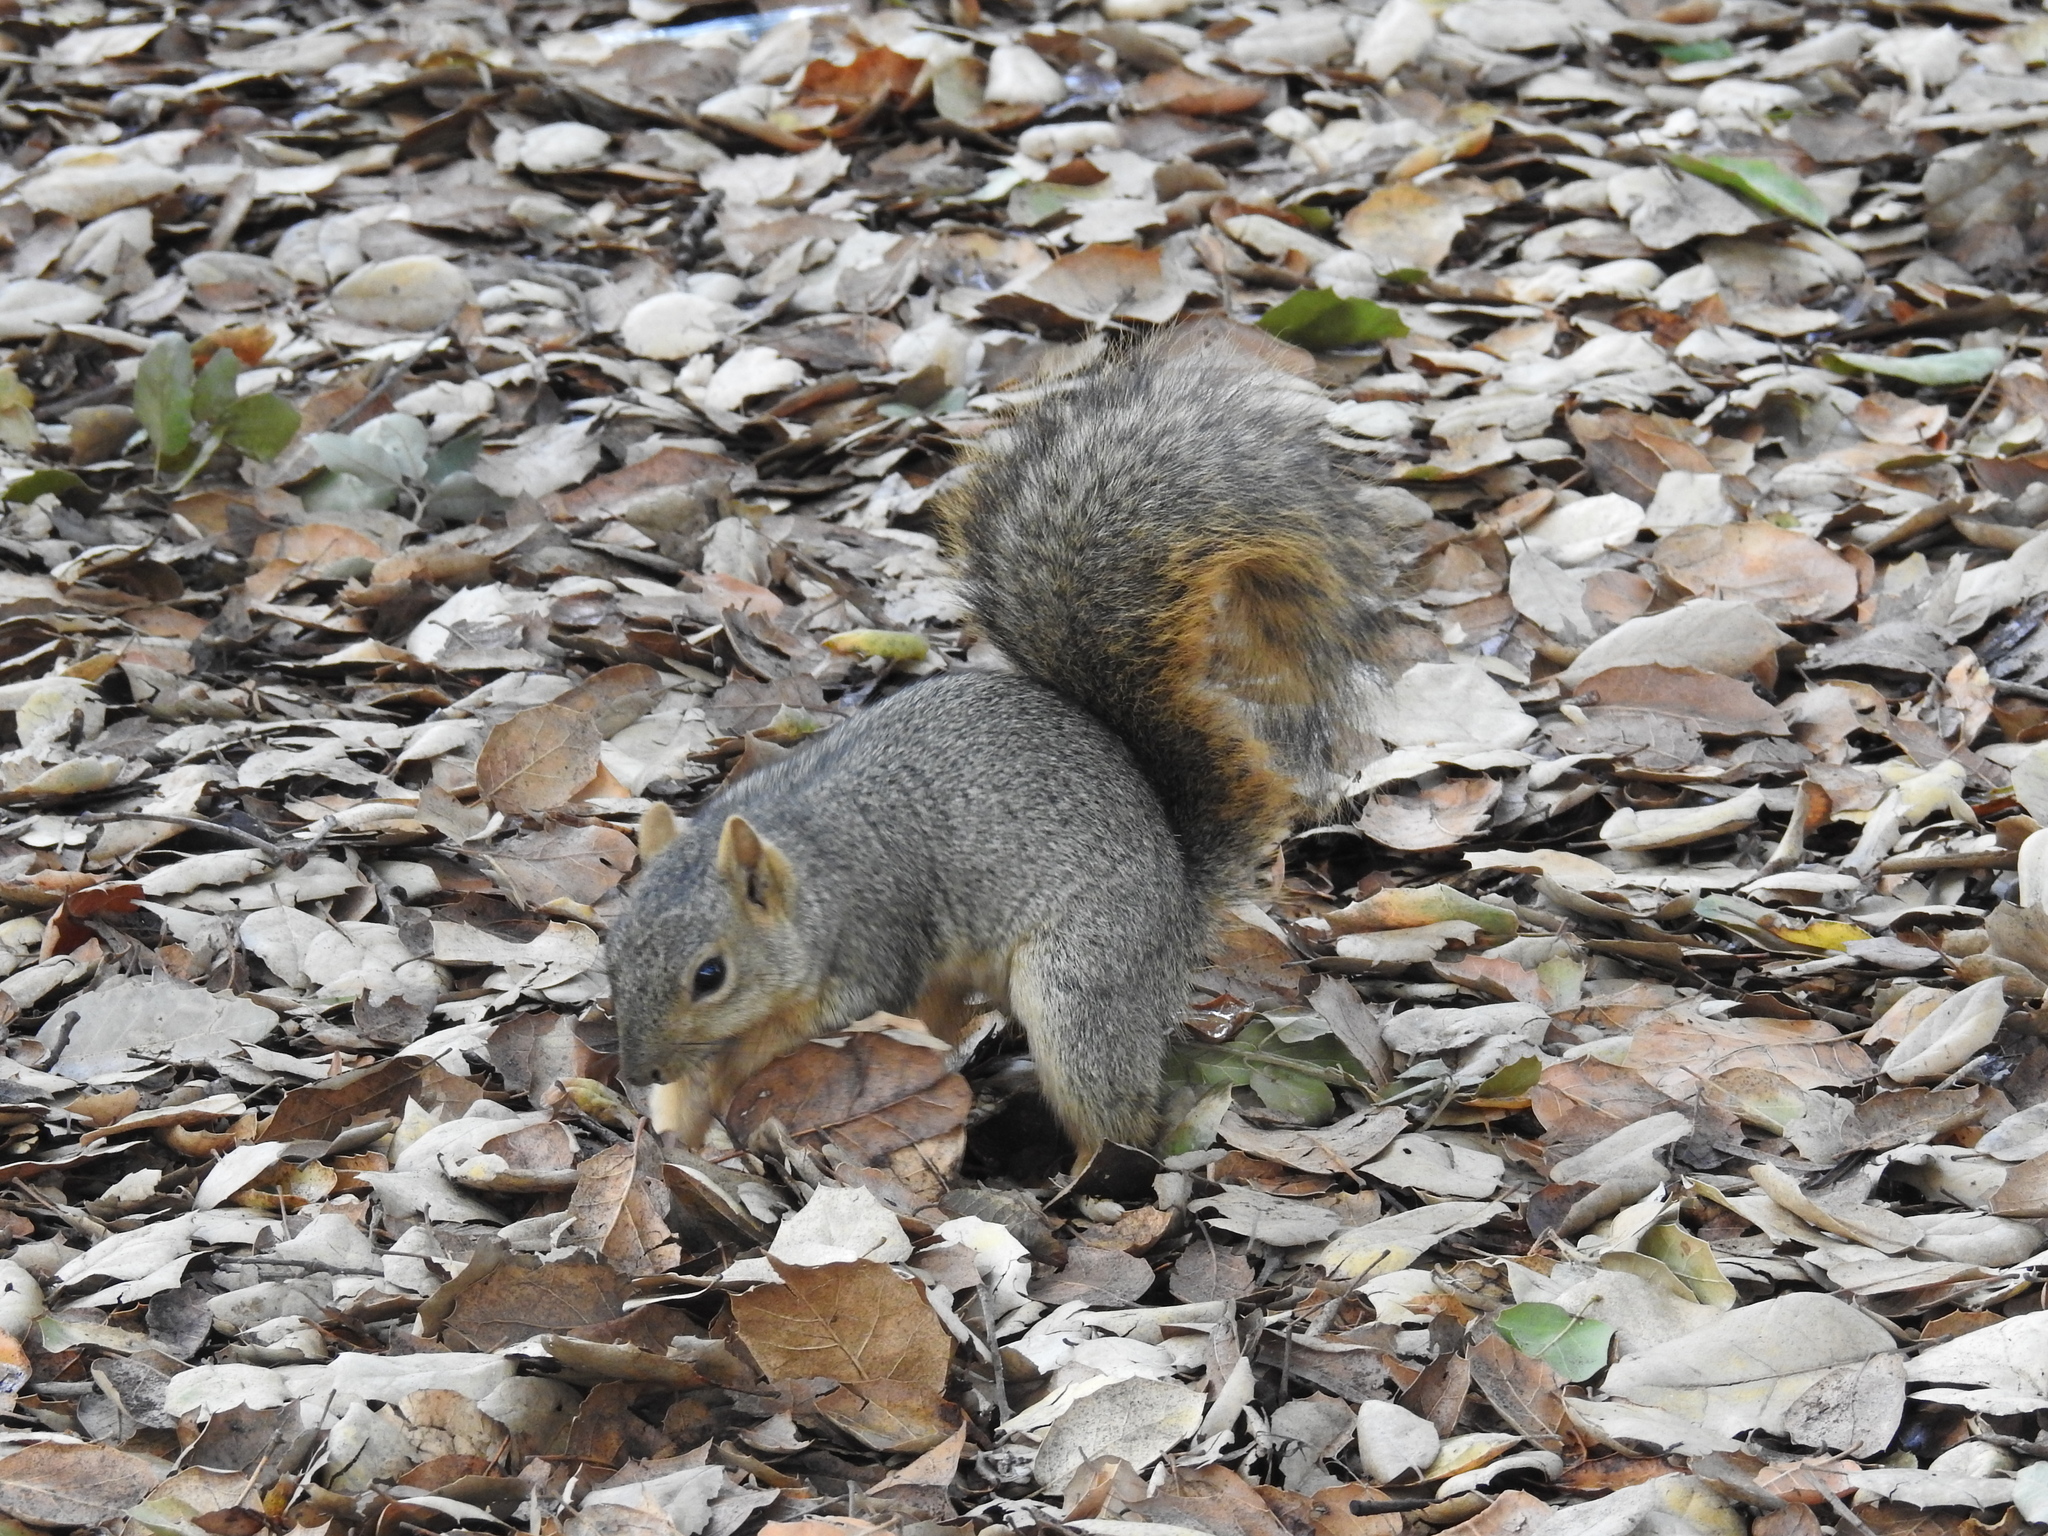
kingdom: Animalia
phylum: Chordata
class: Mammalia
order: Rodentia
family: Sciuridae
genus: Sciurus
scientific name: Sciurus niger
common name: Fox squirrel
